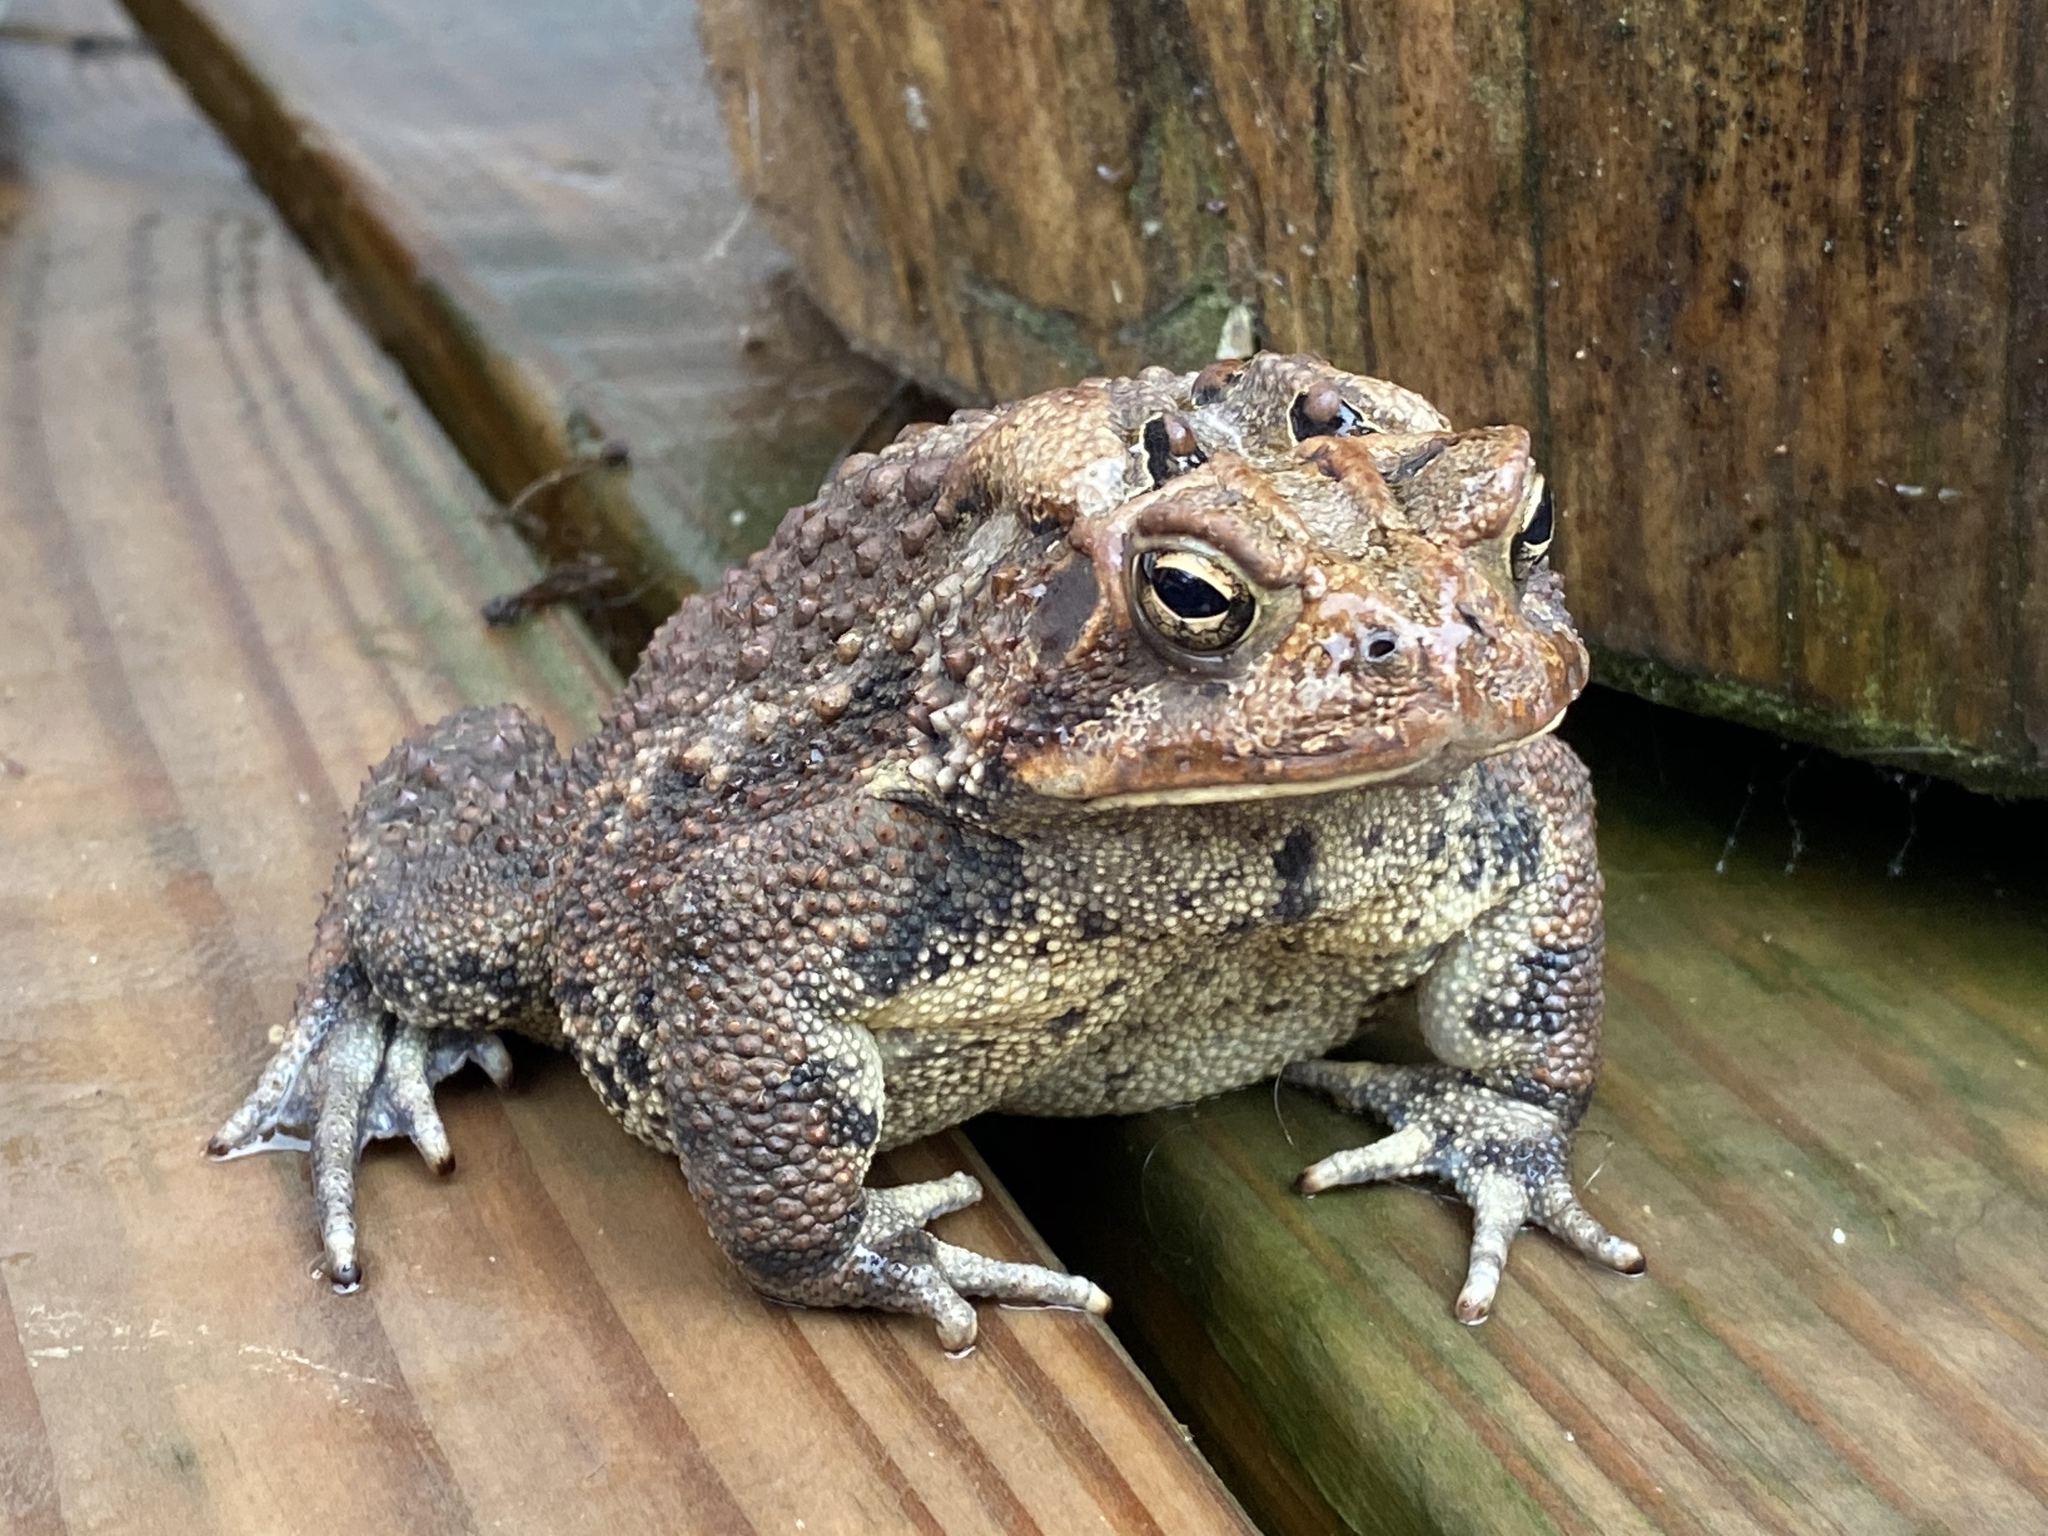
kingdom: Animalia
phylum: Chordata
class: Amphibia
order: Anura
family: Bufonidae
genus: Anaxyrus
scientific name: Anaxyrus americanus
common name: American toad
